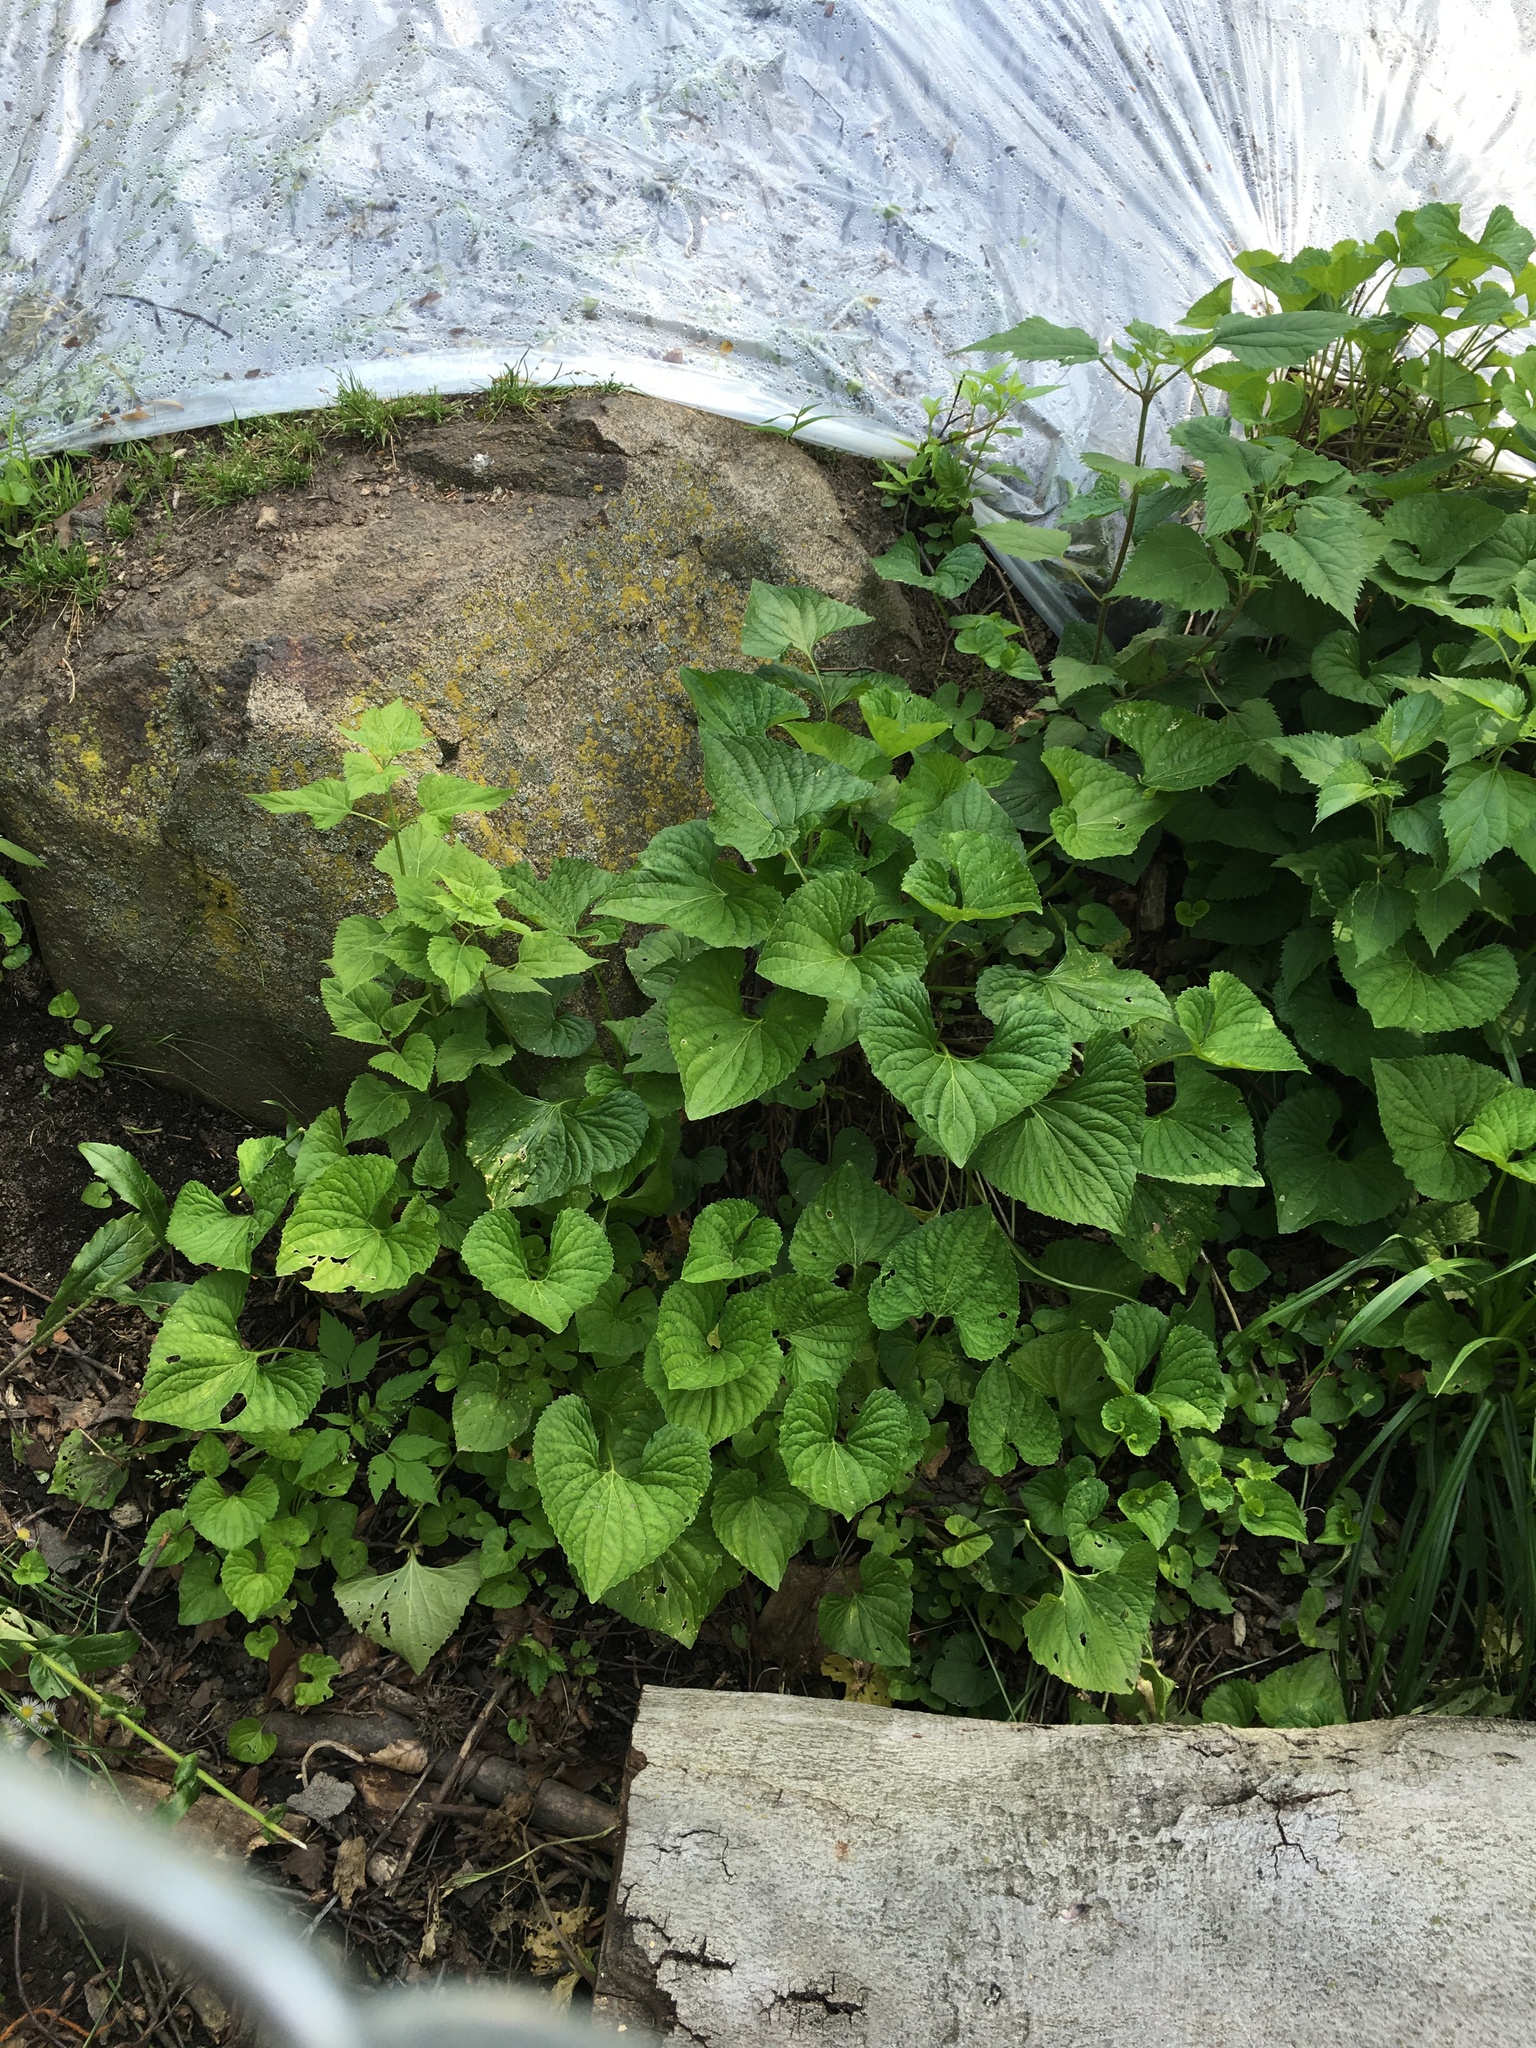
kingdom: Plantae
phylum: Tracheophyta
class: Magnoliopsida
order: Malpighiales
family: Violaceae
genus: Viola
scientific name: Viola sororia
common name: Dooryard violet
